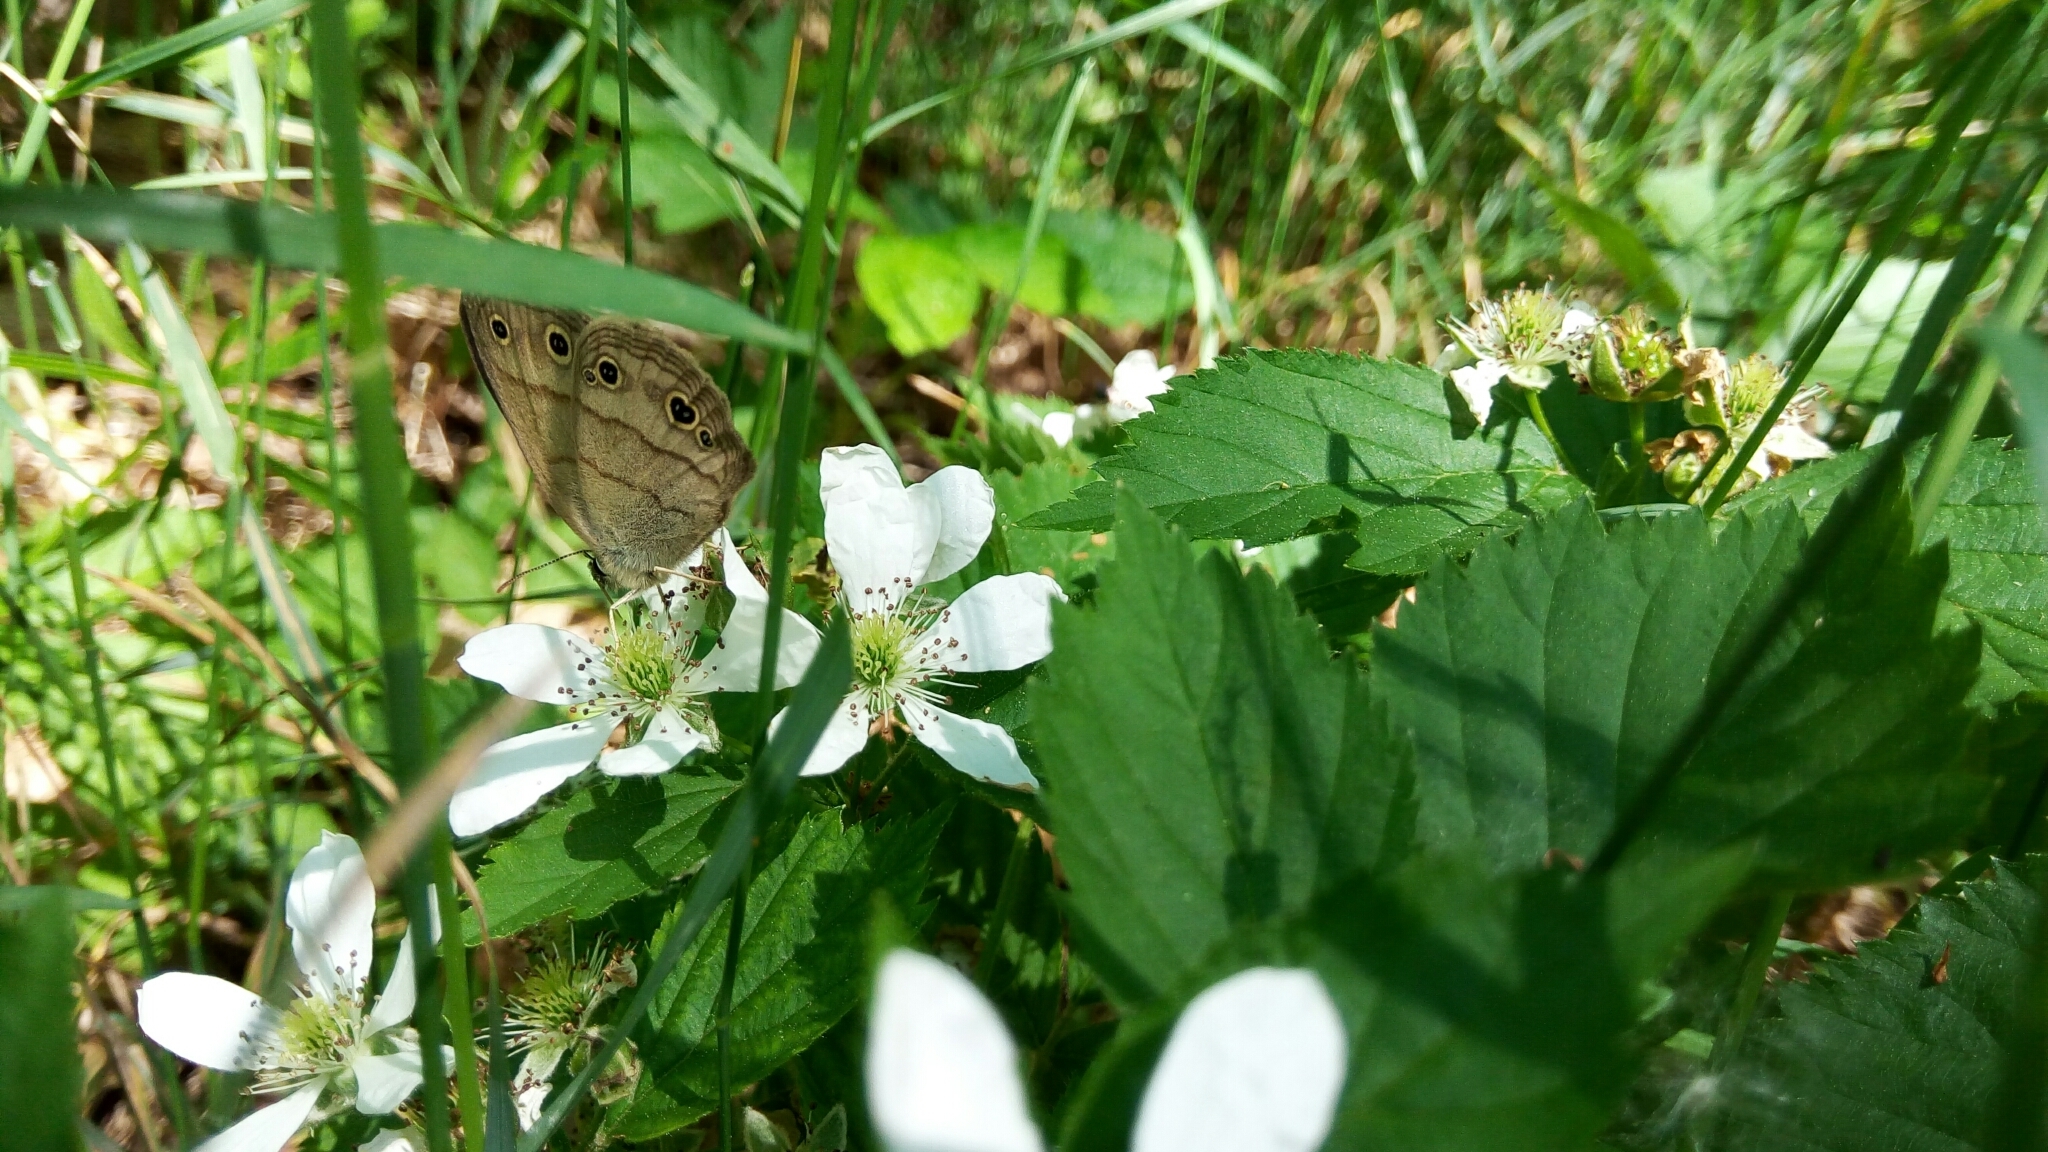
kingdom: Animalia
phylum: Arthropoda
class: Insecta
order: Lepidoptera
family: Nymphalidae
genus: Euptychia
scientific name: Euptychia cymela
